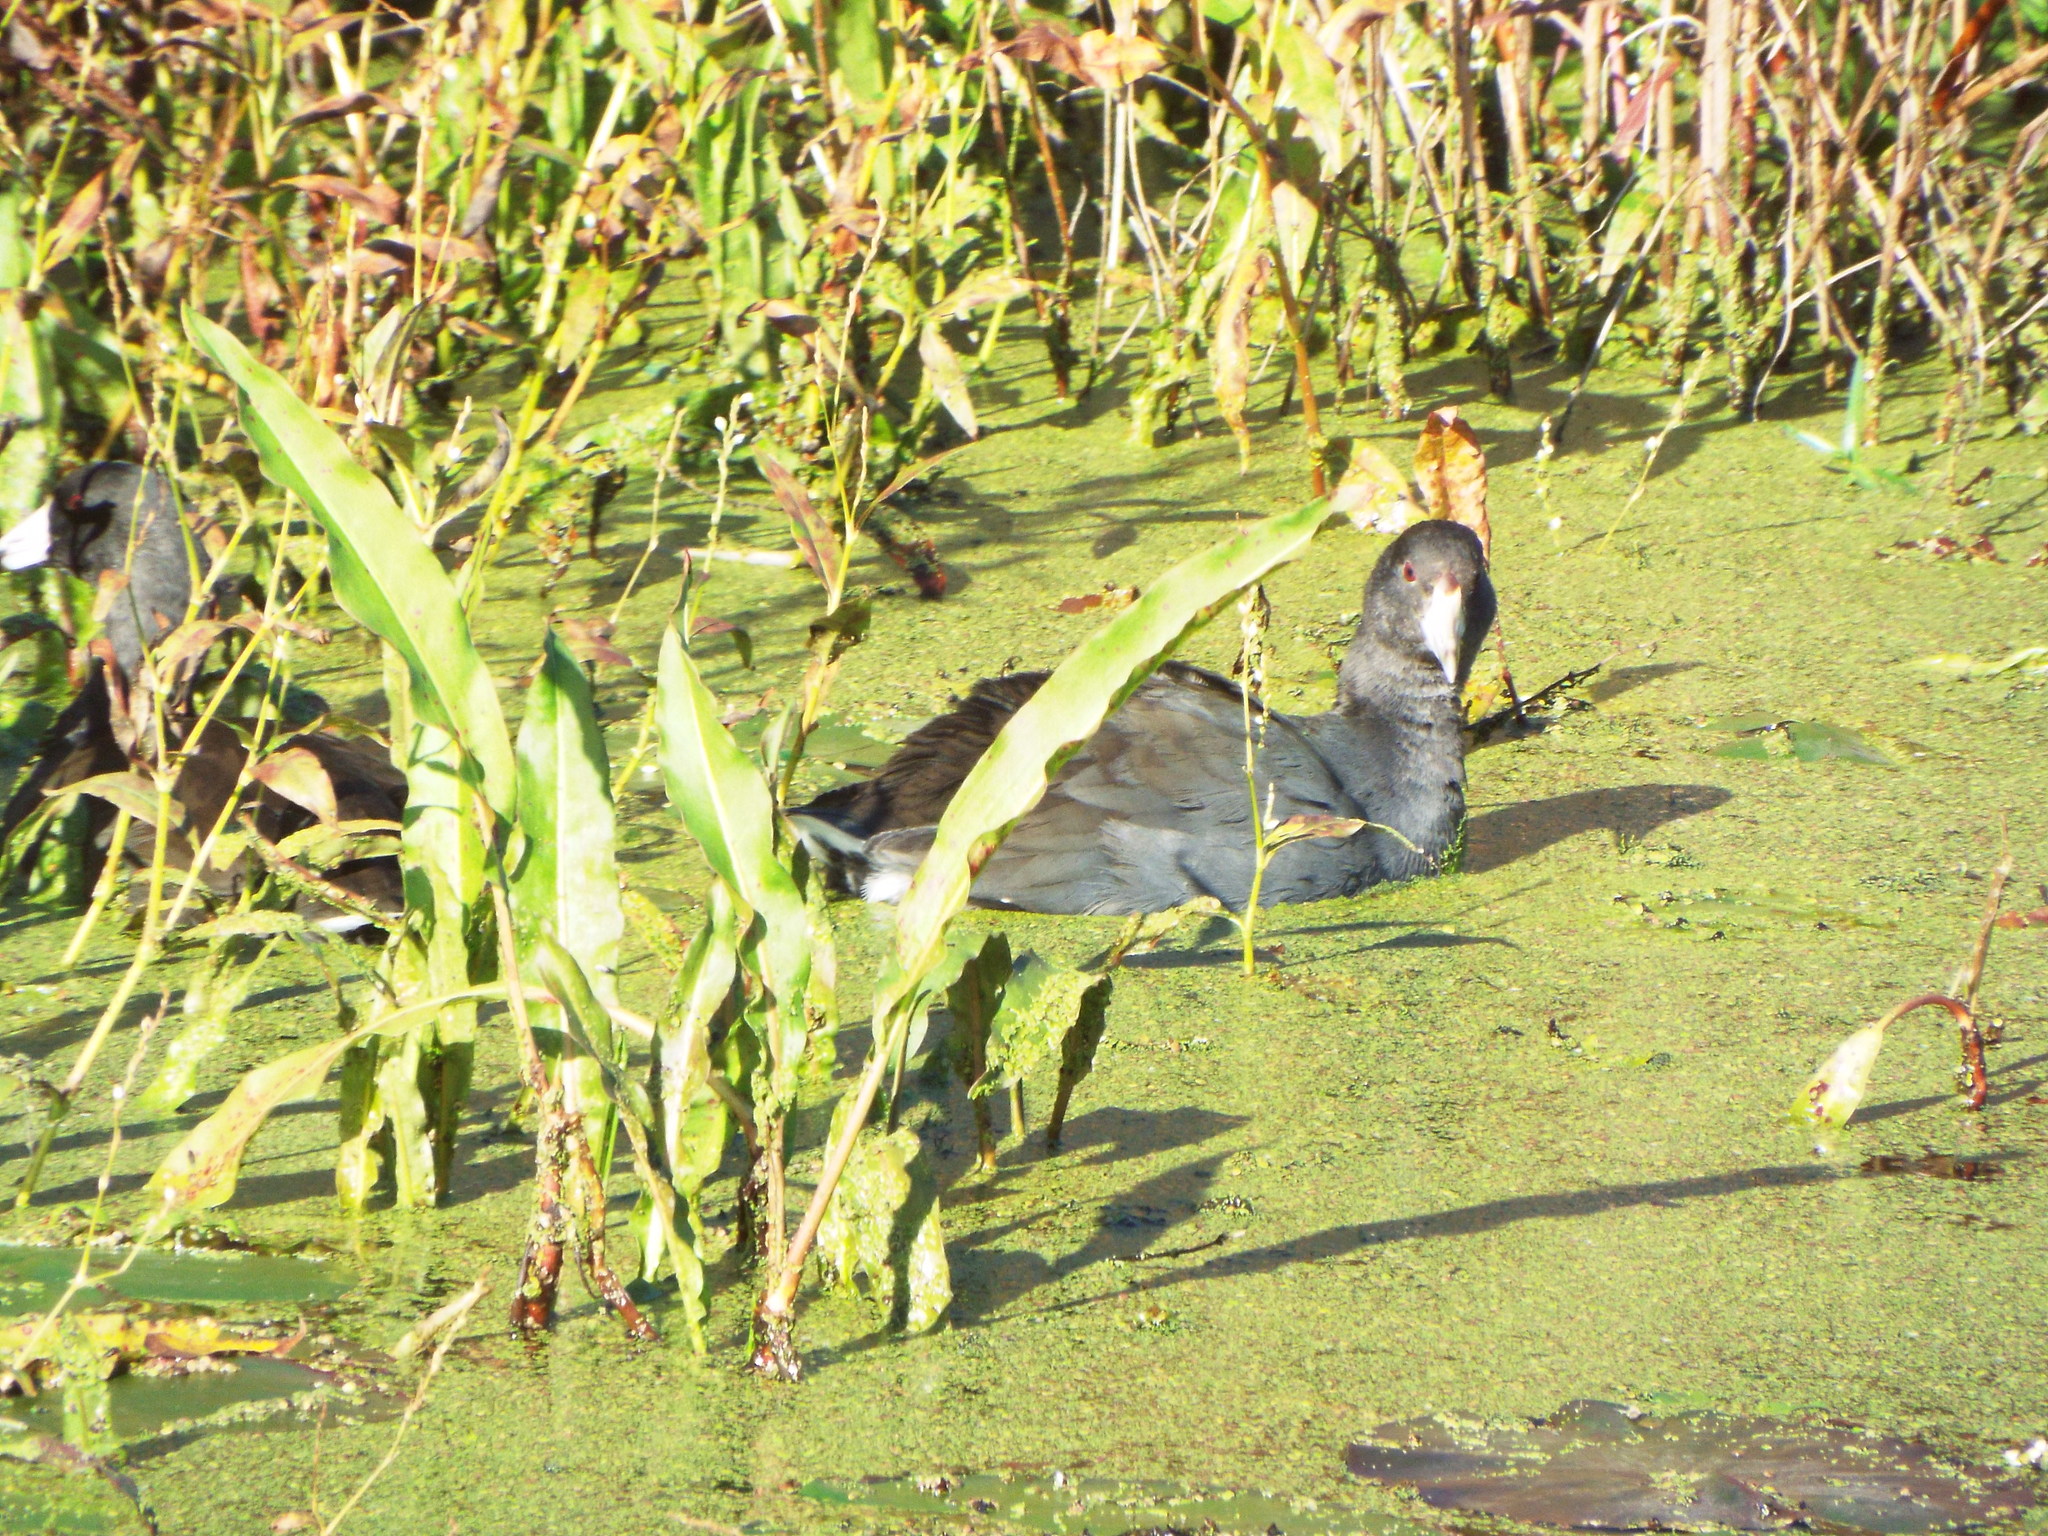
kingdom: Animalia
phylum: Chordata
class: Aves
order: Gruiformes
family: Rallidae
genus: Fulica
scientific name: Fulica americana
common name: American coot
